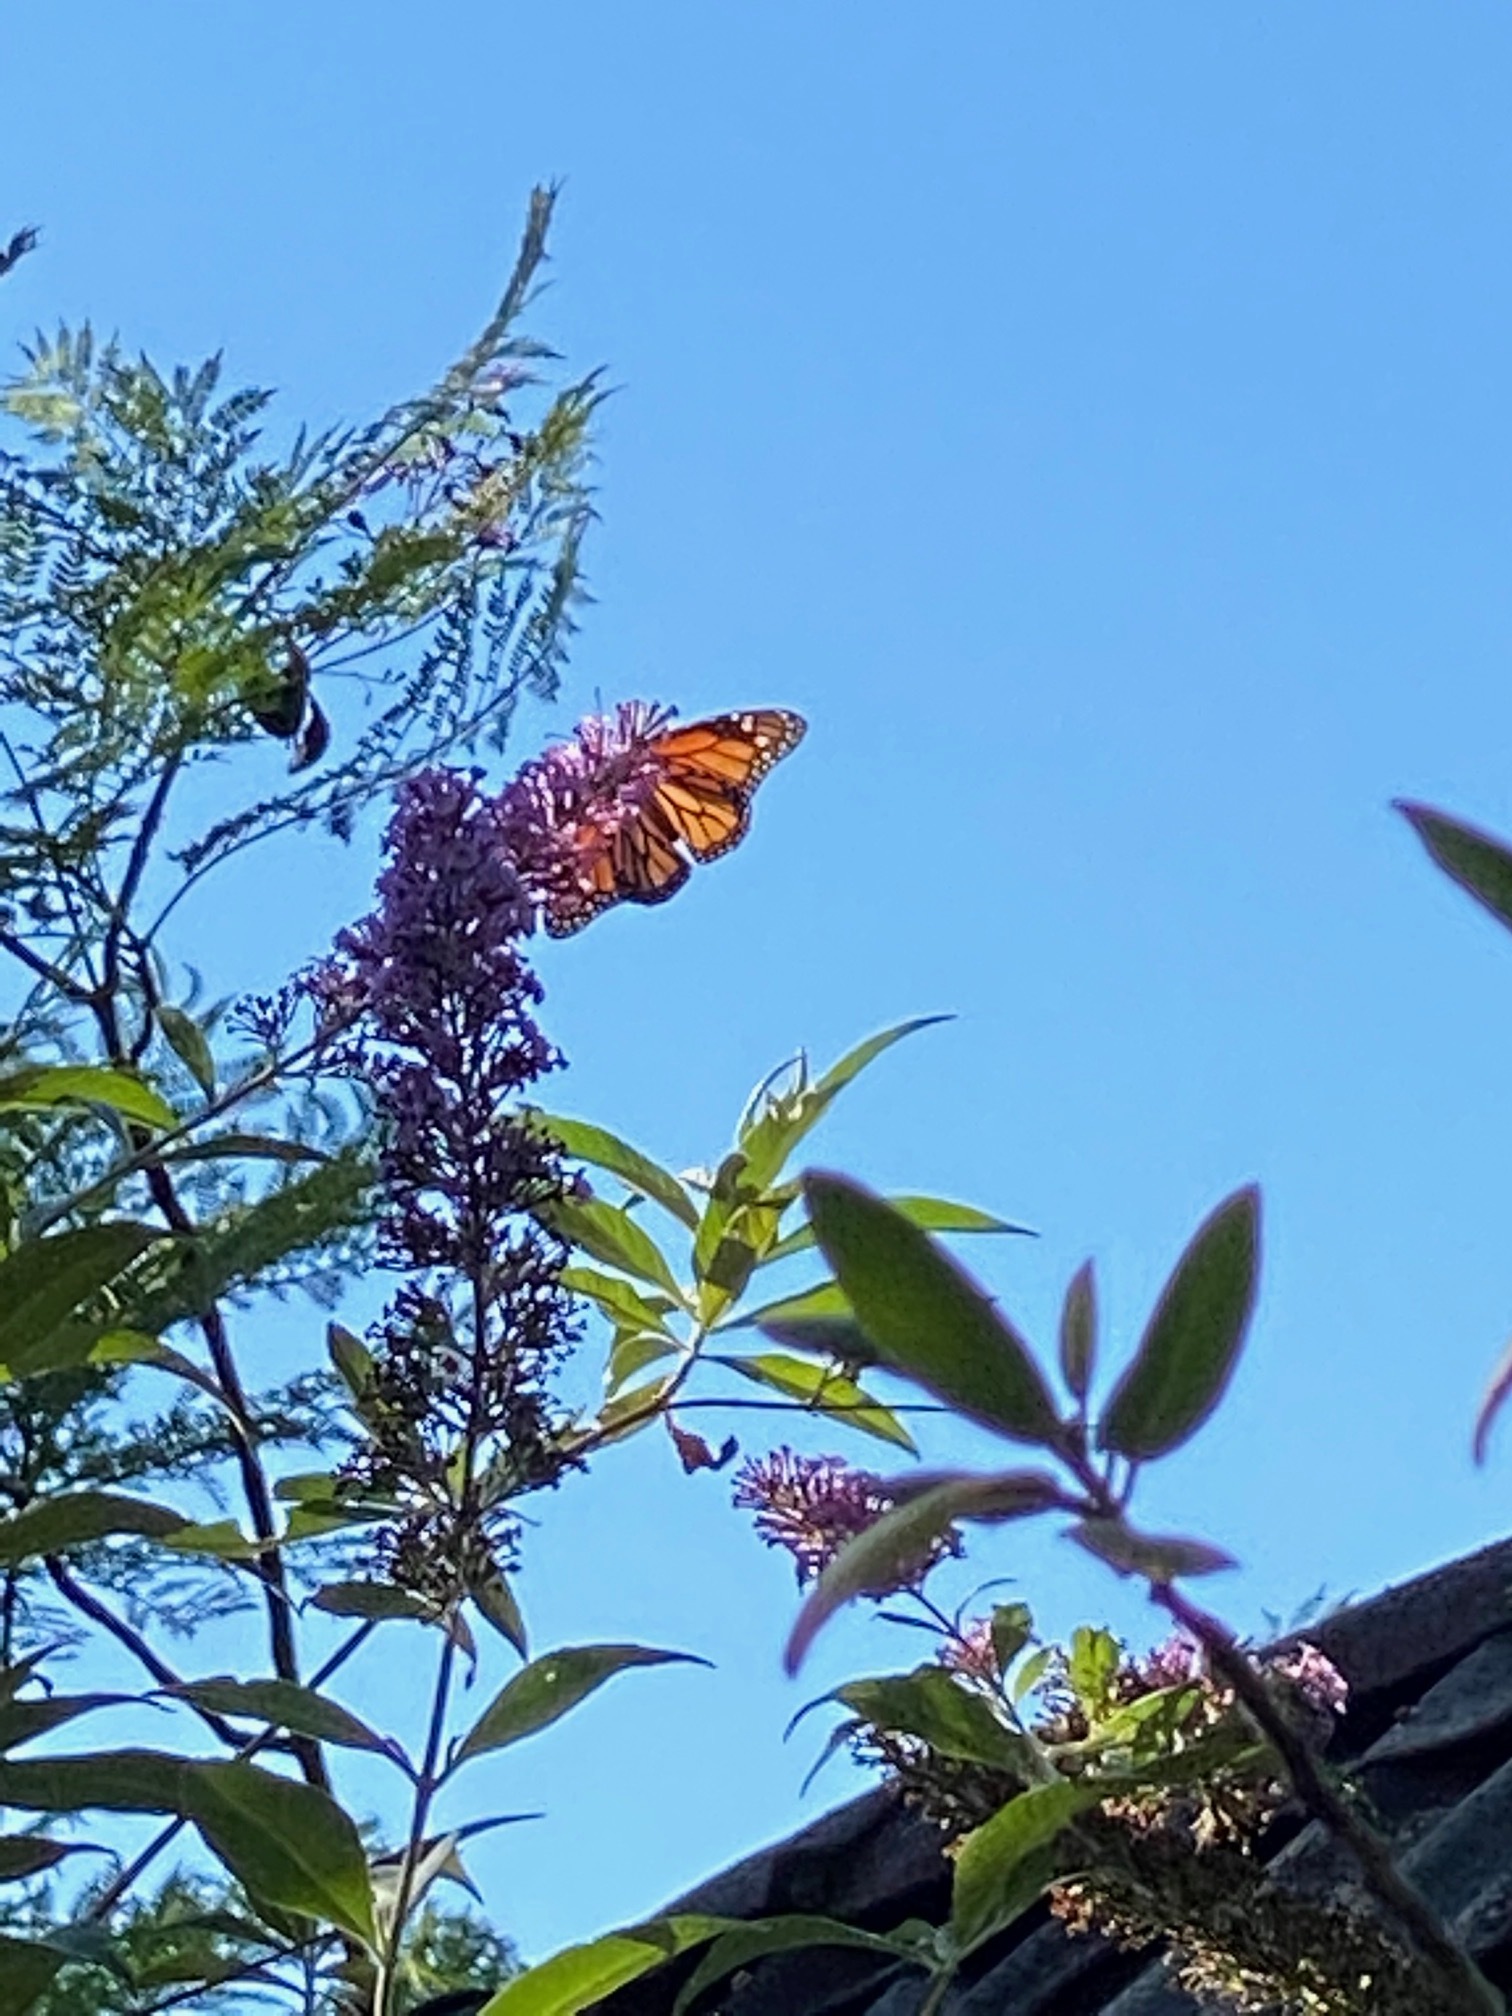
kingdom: Animalia
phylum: Arthropoda
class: Insecta
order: Lepidoptera
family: Nymphalidae
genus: Danaus
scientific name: Danaus plexippus
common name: Monarch
